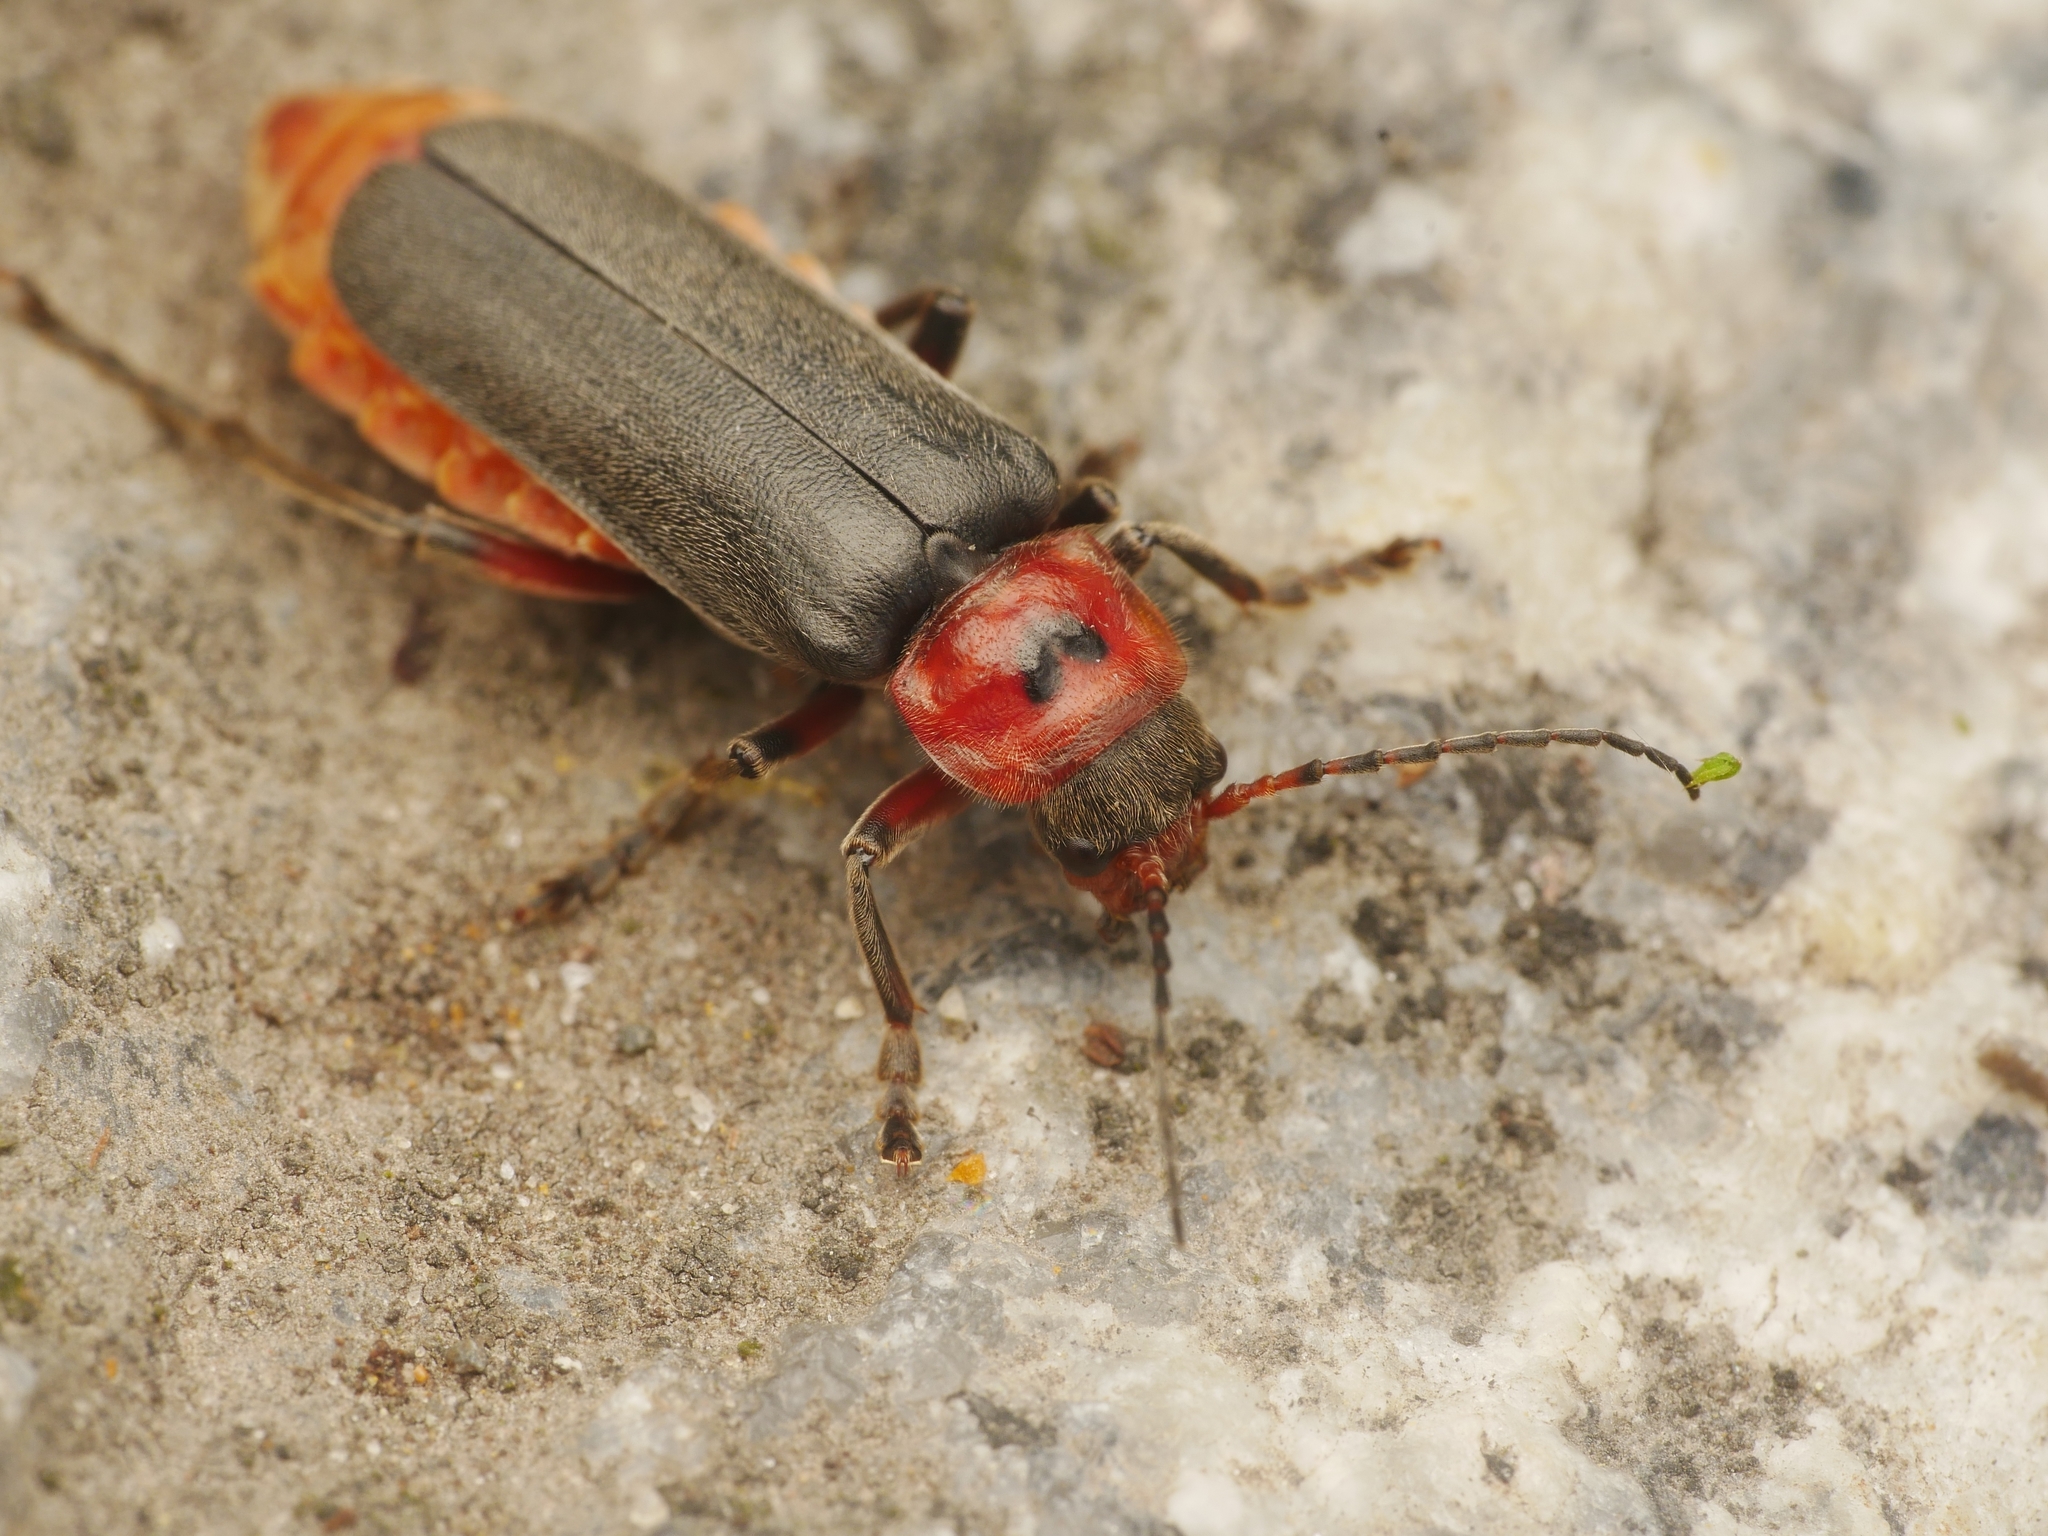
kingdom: Animalia
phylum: Arthropoda
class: Insecta
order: Coleoptera
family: Cantharidae
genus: Cantharis
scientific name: Cantharis rustica
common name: Soldier beetle
